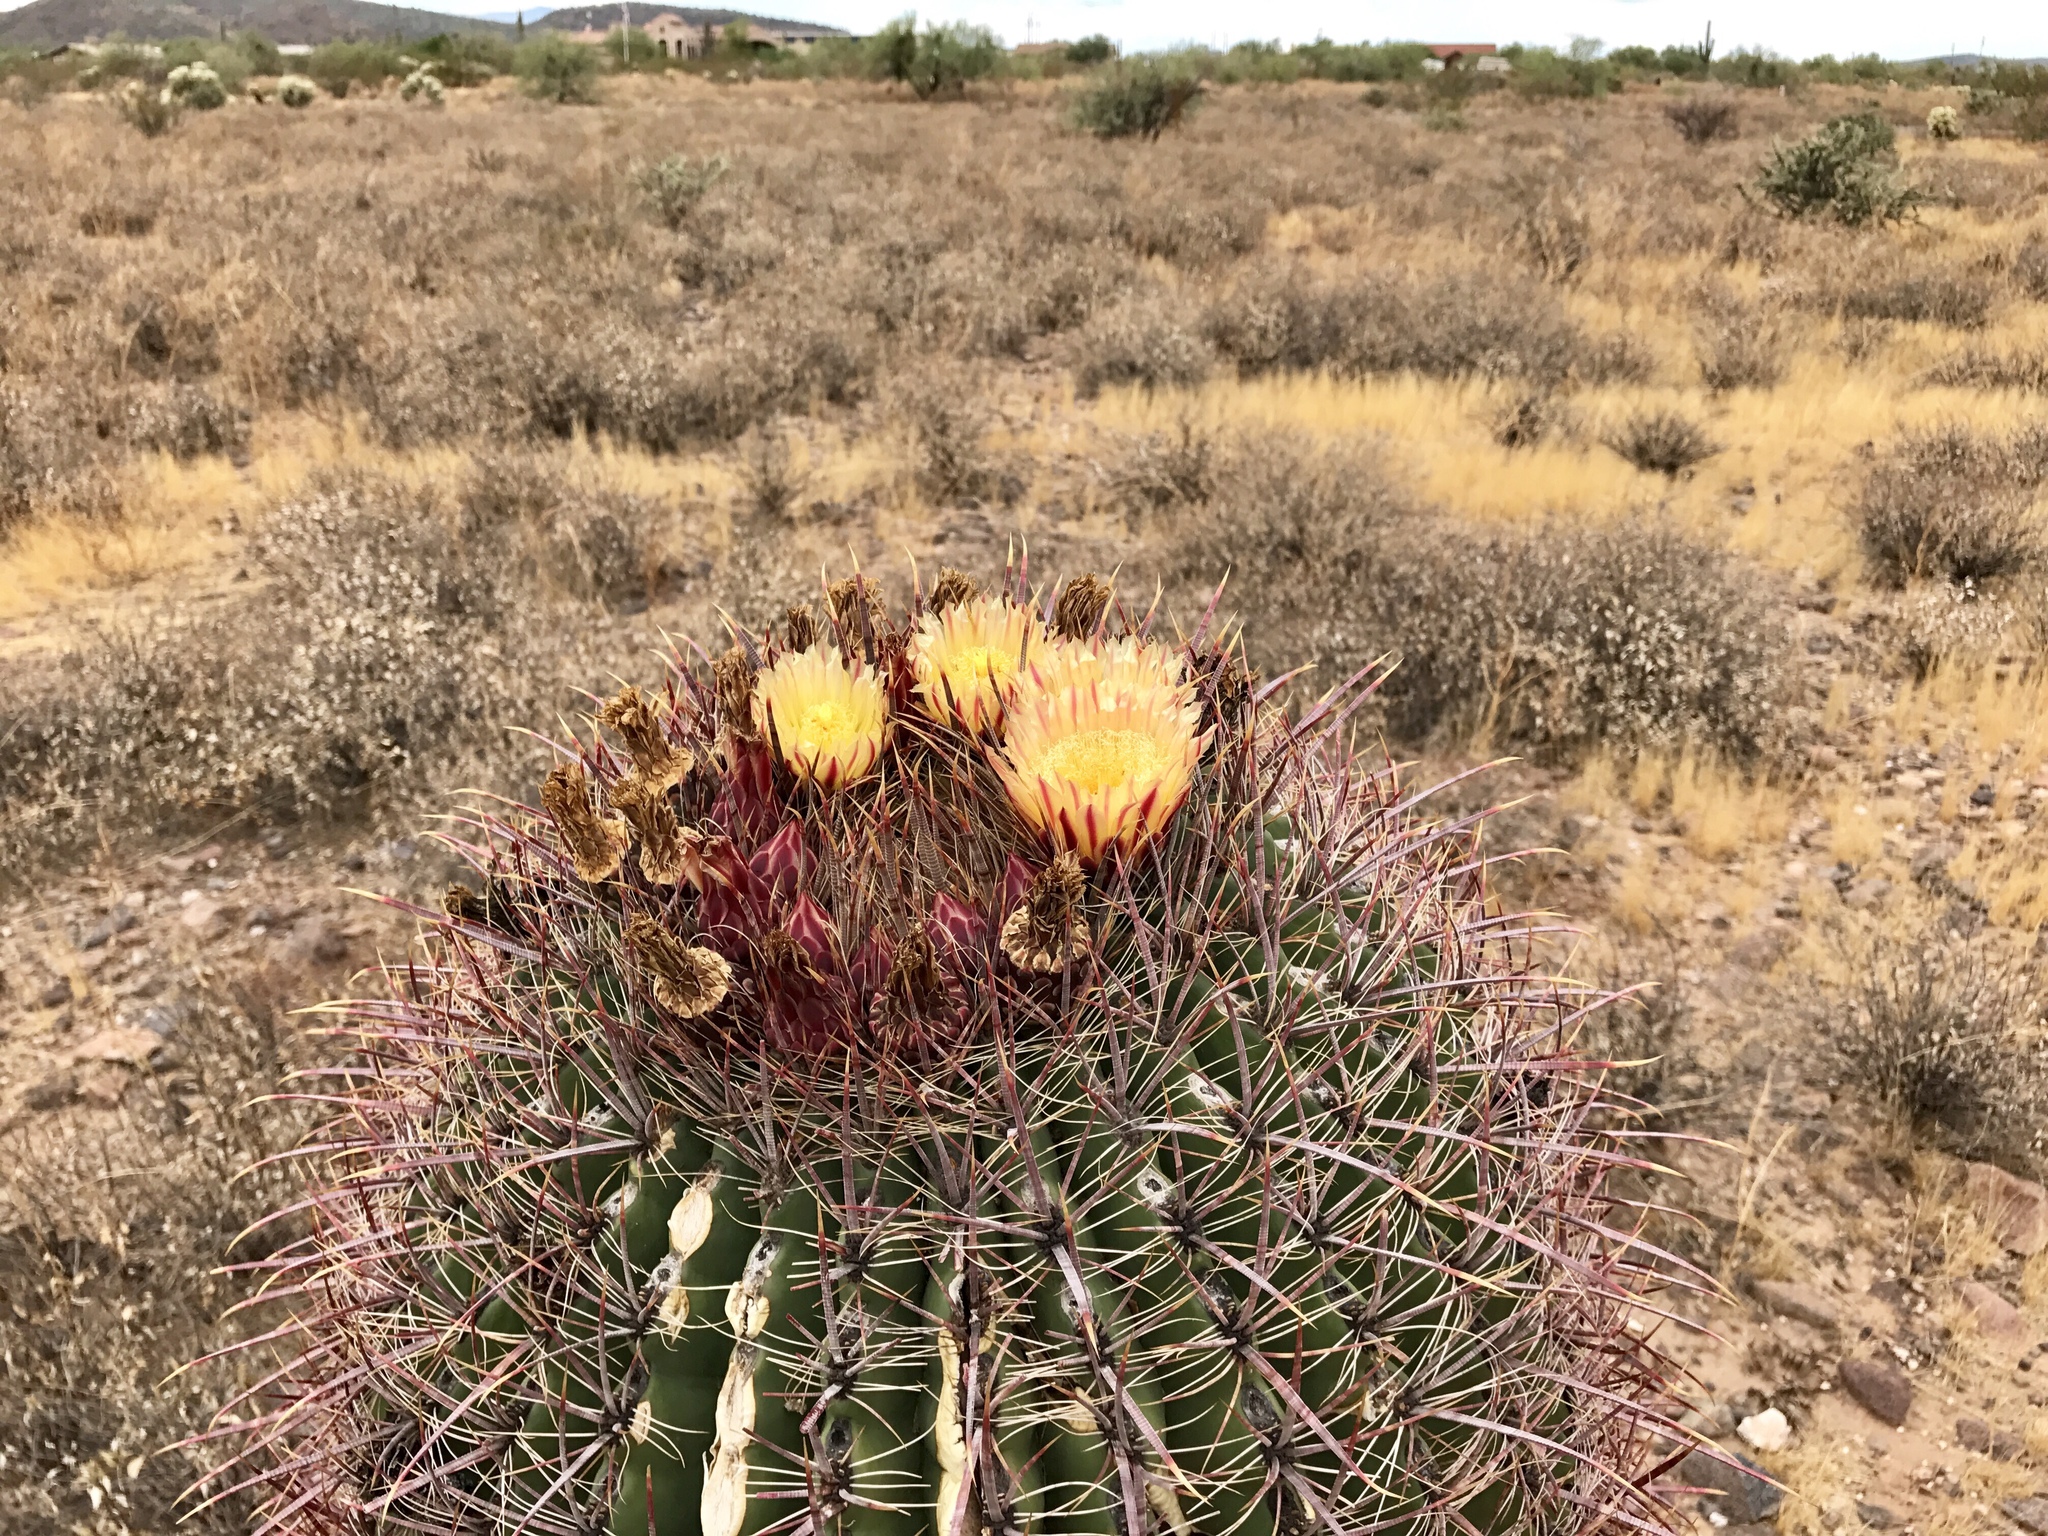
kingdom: Plantae
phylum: Tracheophyta
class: Magnoliopsida
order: Caryophyllales
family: Cactaceae
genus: Ferocactus
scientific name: Ferocactus cylindraceus
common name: California barrel cactus
